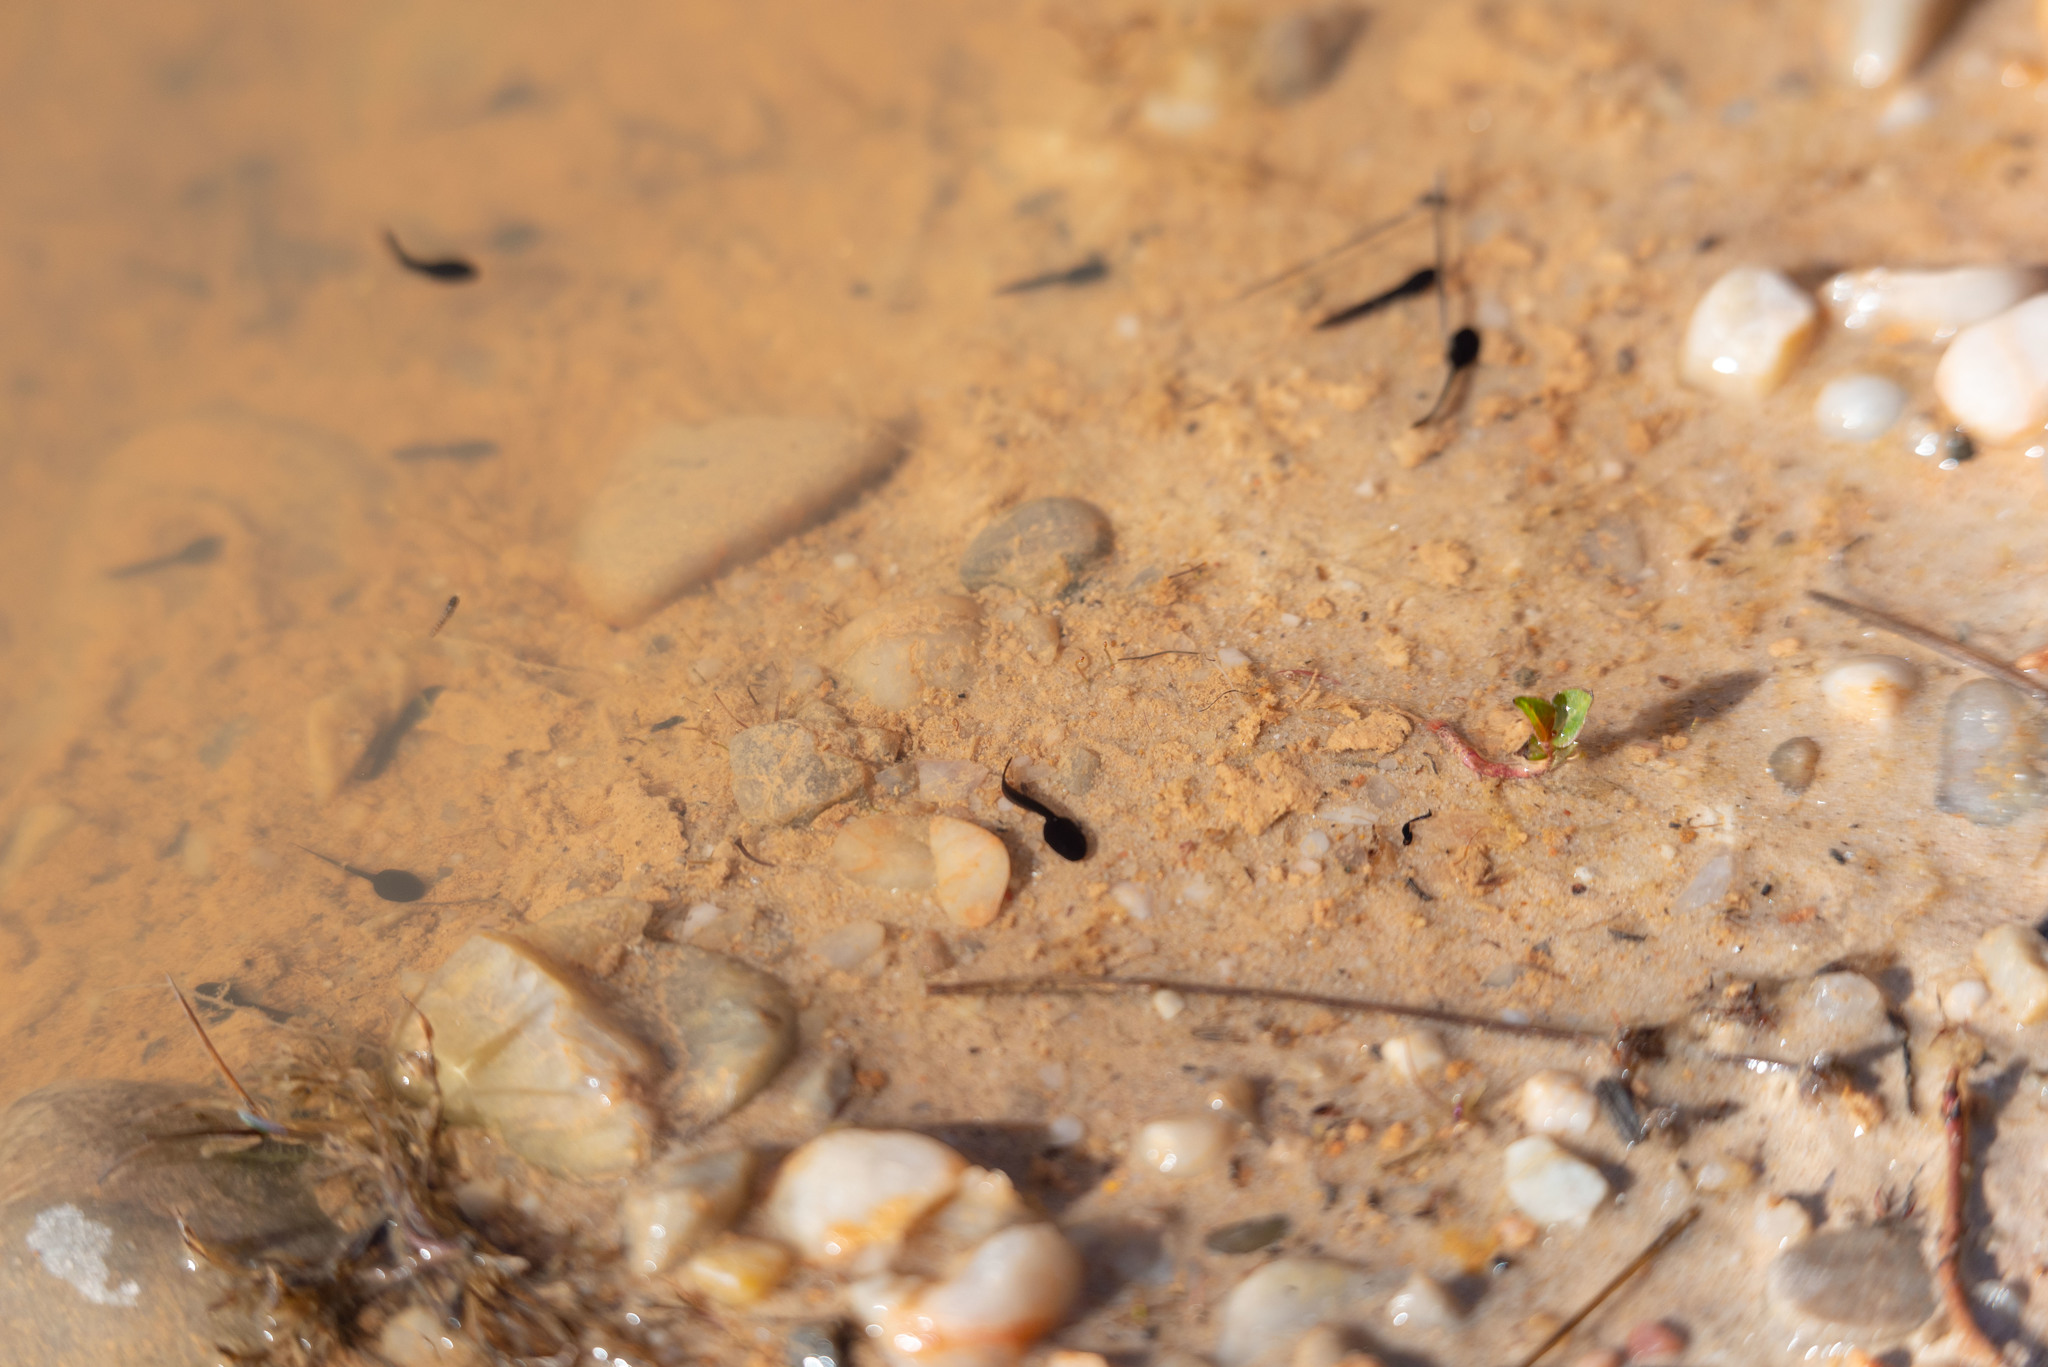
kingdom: Animalia
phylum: Chordata
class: Amphibia
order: Anura
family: Bufonidae
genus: Epidalea
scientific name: Epidalea calamita
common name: Natterjack toad
